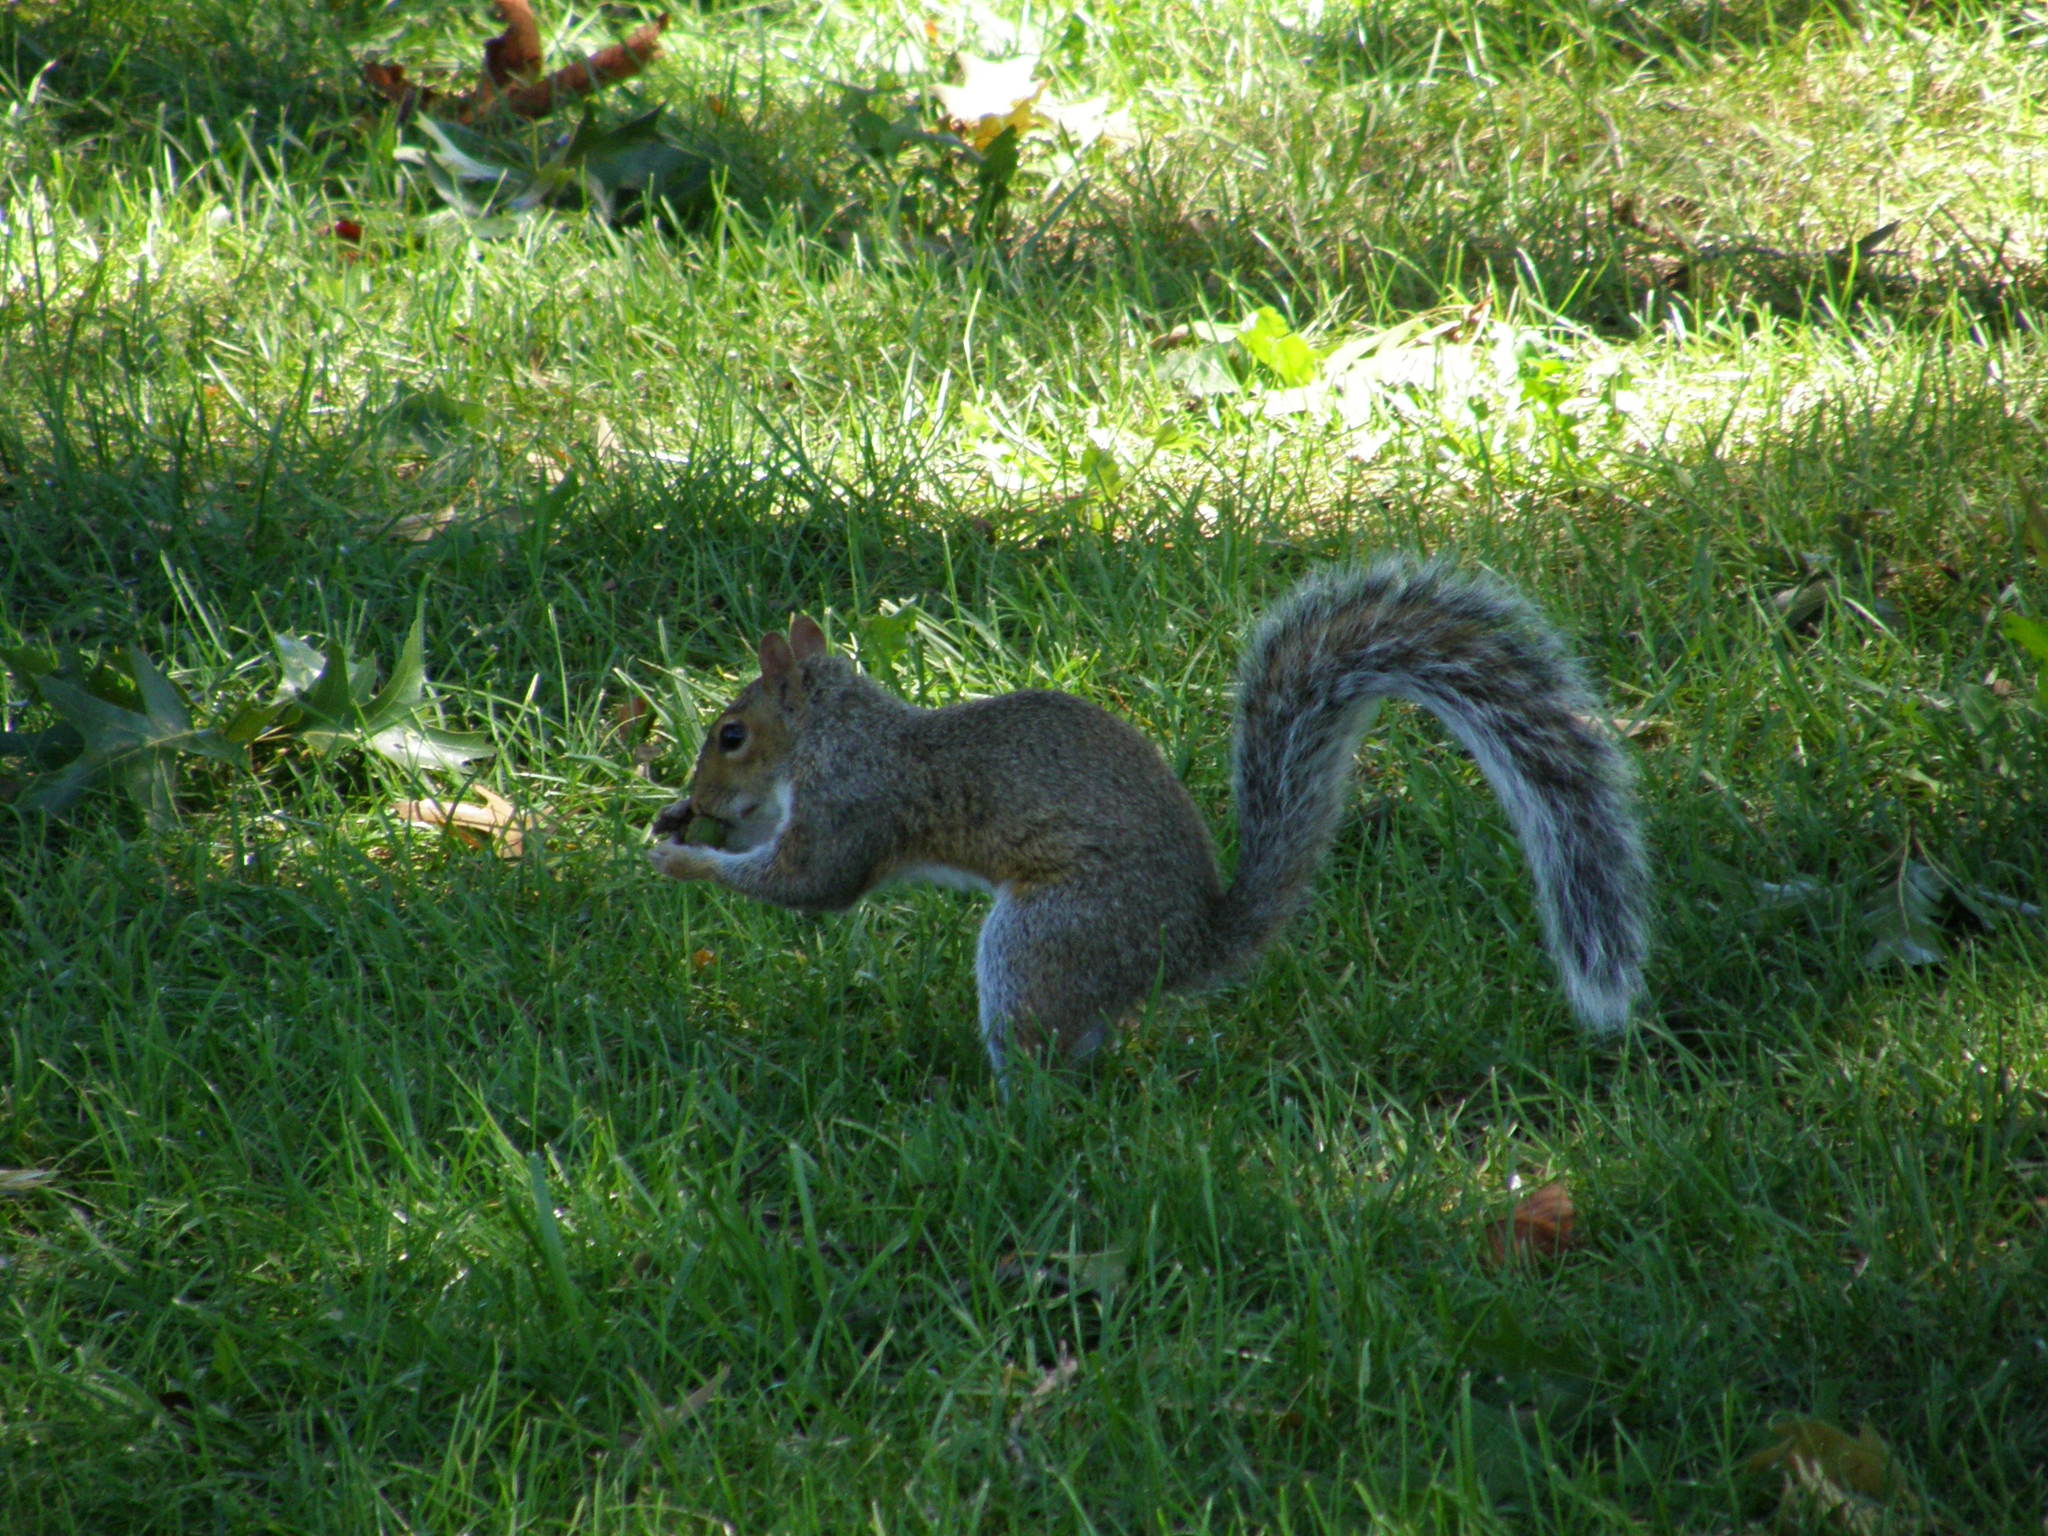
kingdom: Animalia
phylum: Chordata
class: Mammalia
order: Rodentia
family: Sciuridae
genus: Sciurus
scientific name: Sciurus carolinensis
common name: Eastern gray squirrel
